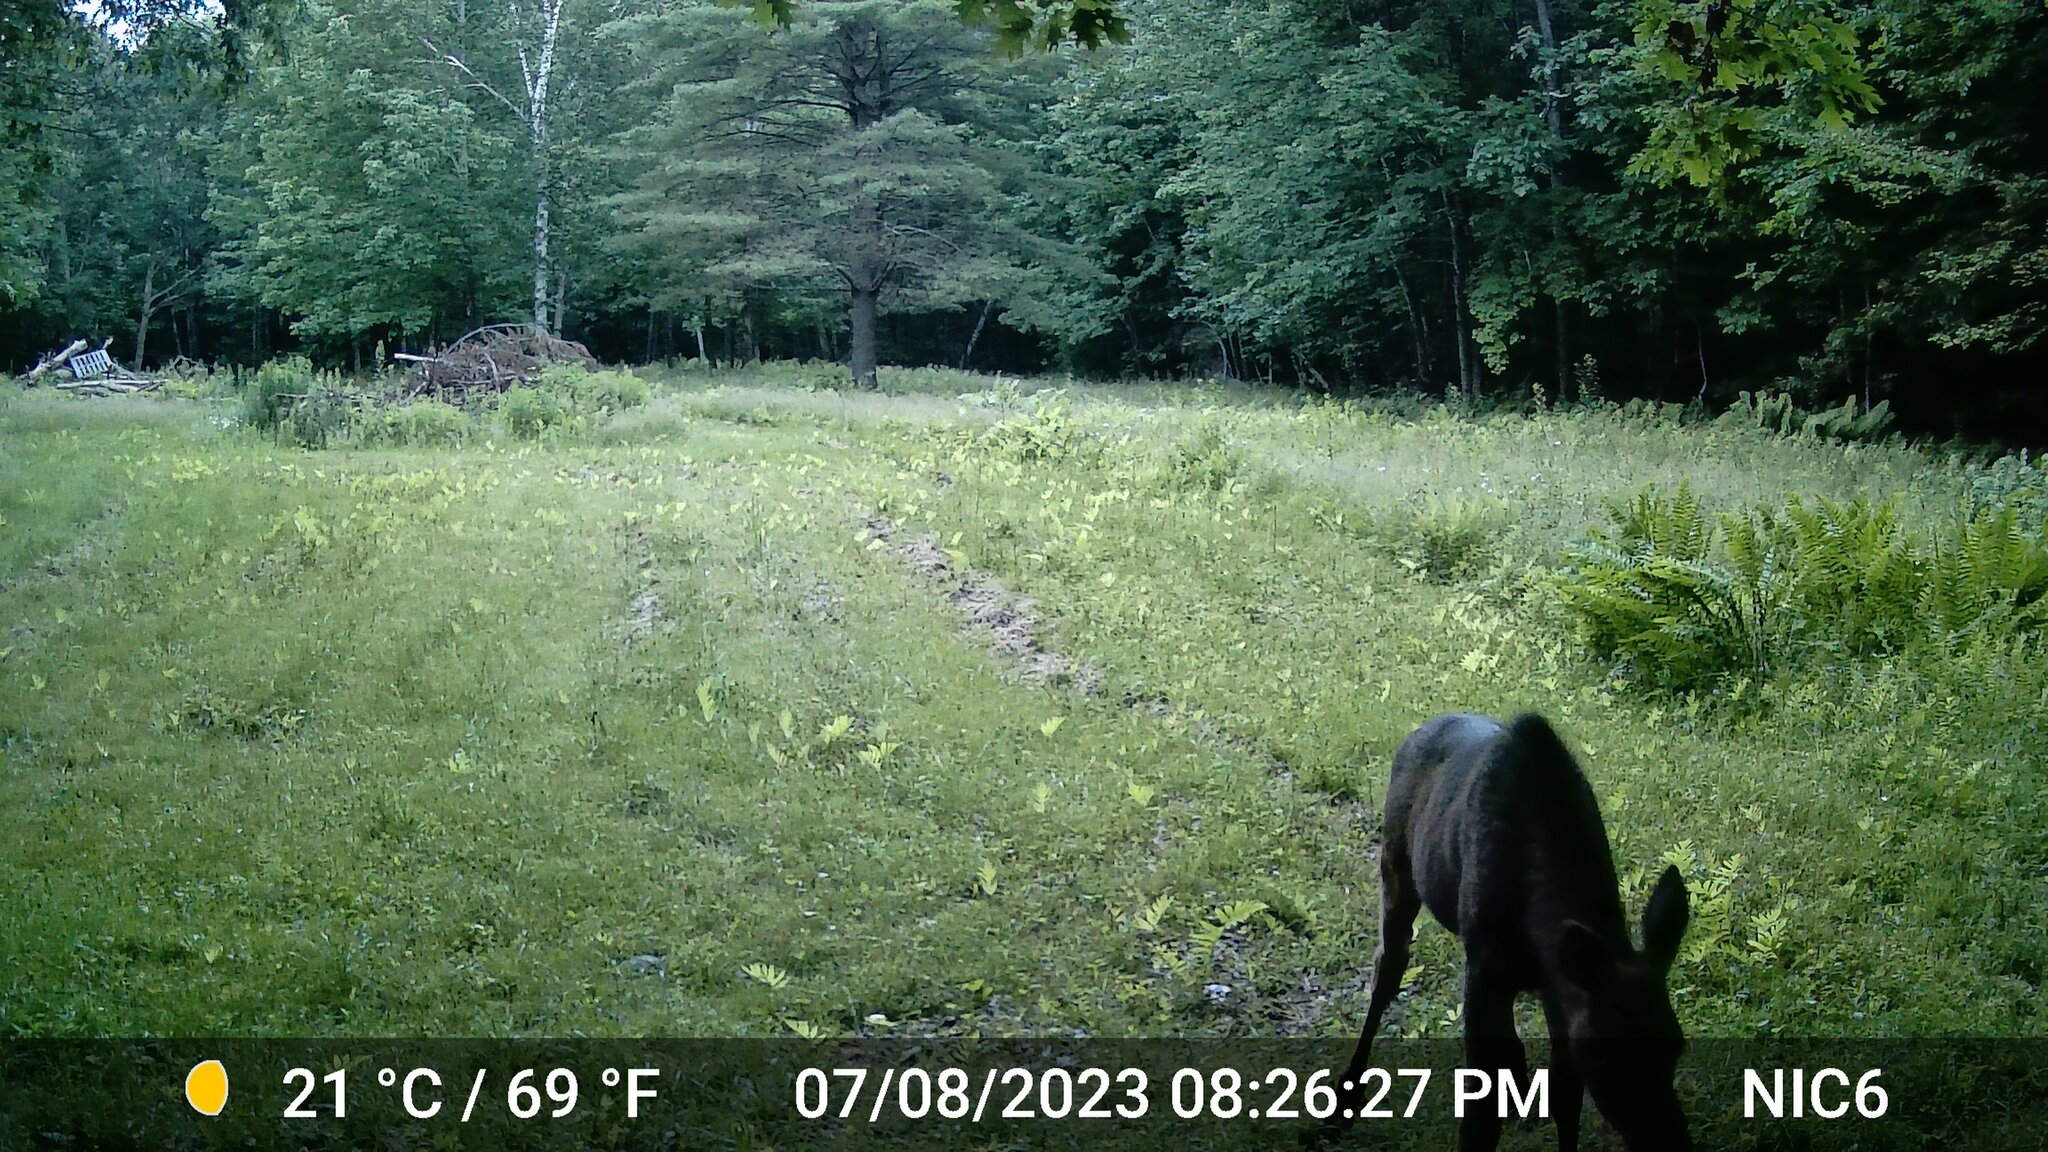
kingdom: Animalia
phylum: Chordata
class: Mammalia
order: Artiodactyla
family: Cervidae
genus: Alces
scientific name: Alces alces
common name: Moose
